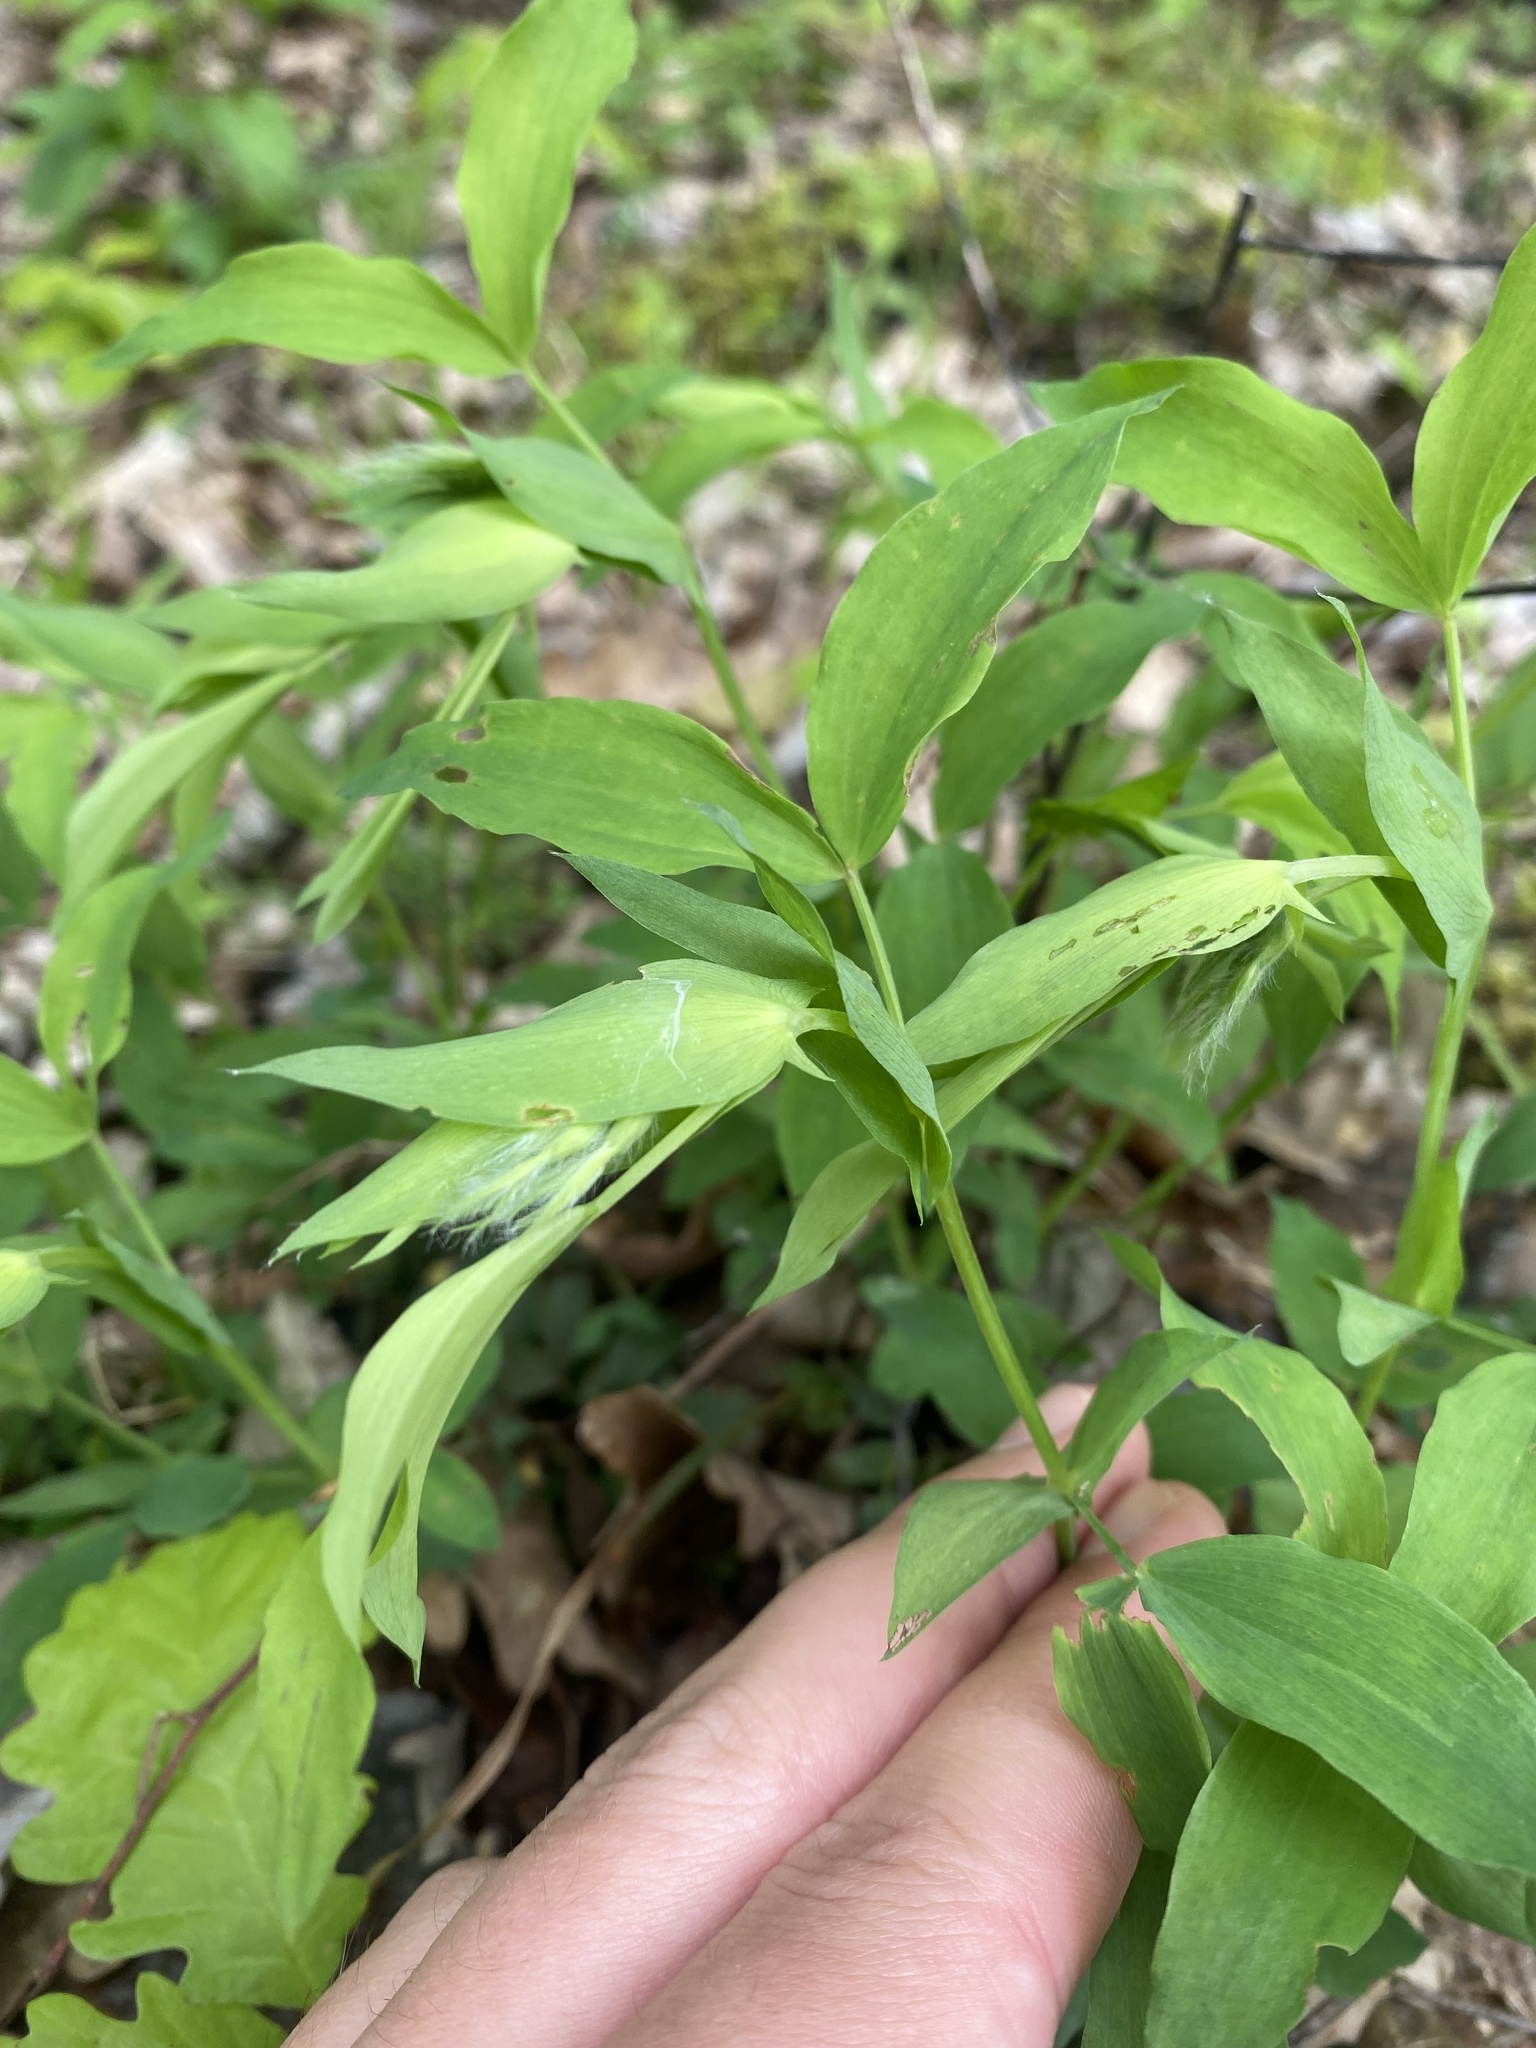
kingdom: Plantae
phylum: Tracheophyta
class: Magnoliopsida
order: Fabales
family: Fabaceae
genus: Lathyrus
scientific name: Lathyrus laxiflorus
